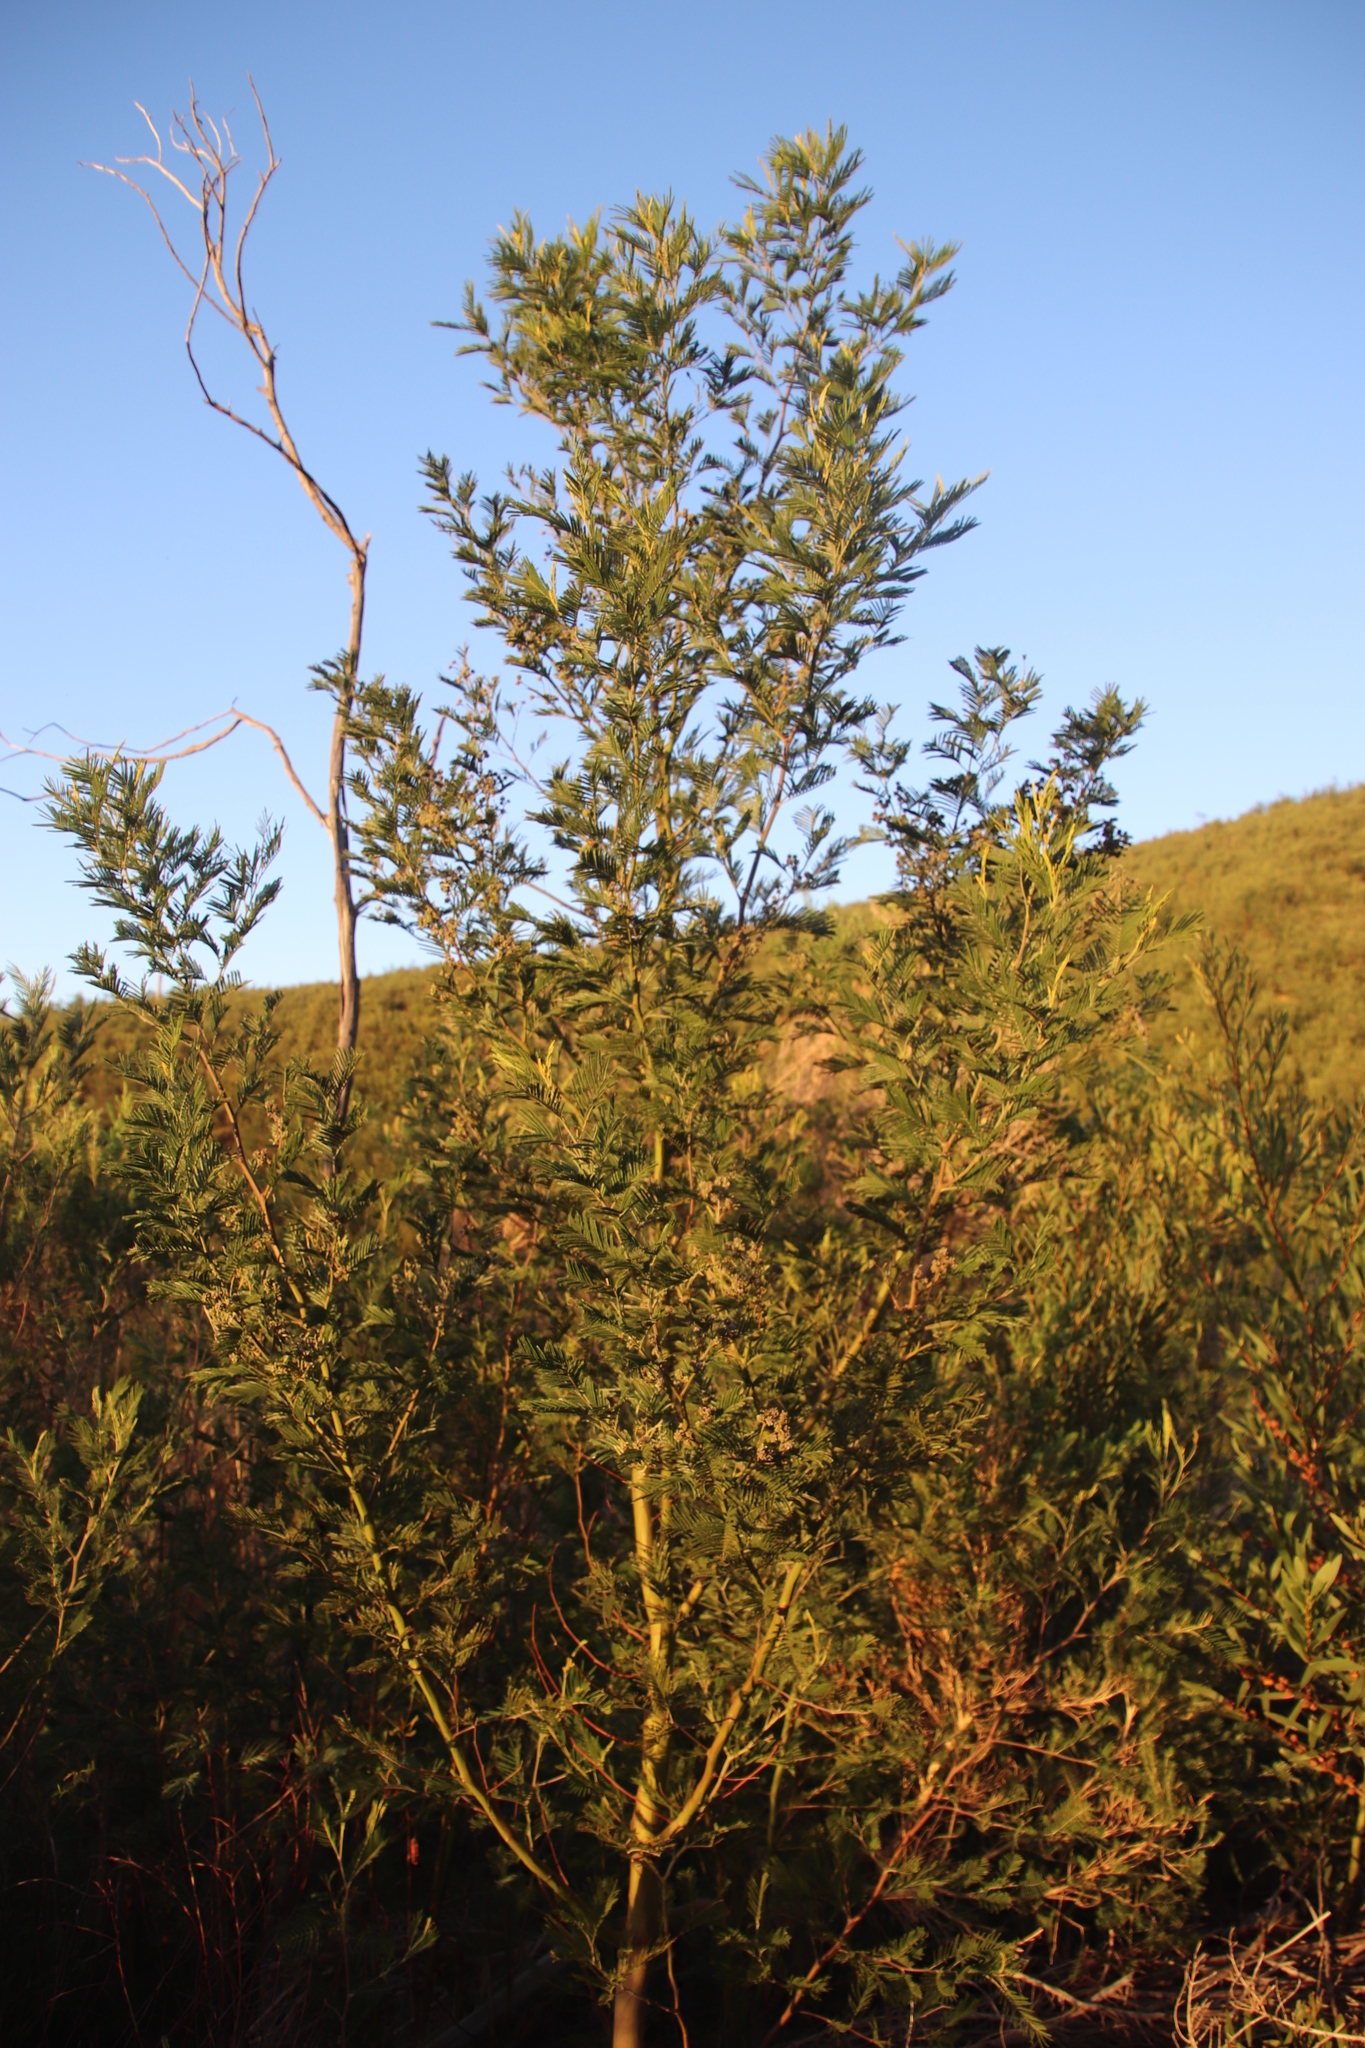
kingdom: Plantae
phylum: Tracheophyta
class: Magnoliopsida
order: Fabales
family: Fabaceae
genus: Acacia
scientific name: Acacia mearnsii
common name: Black wattle
